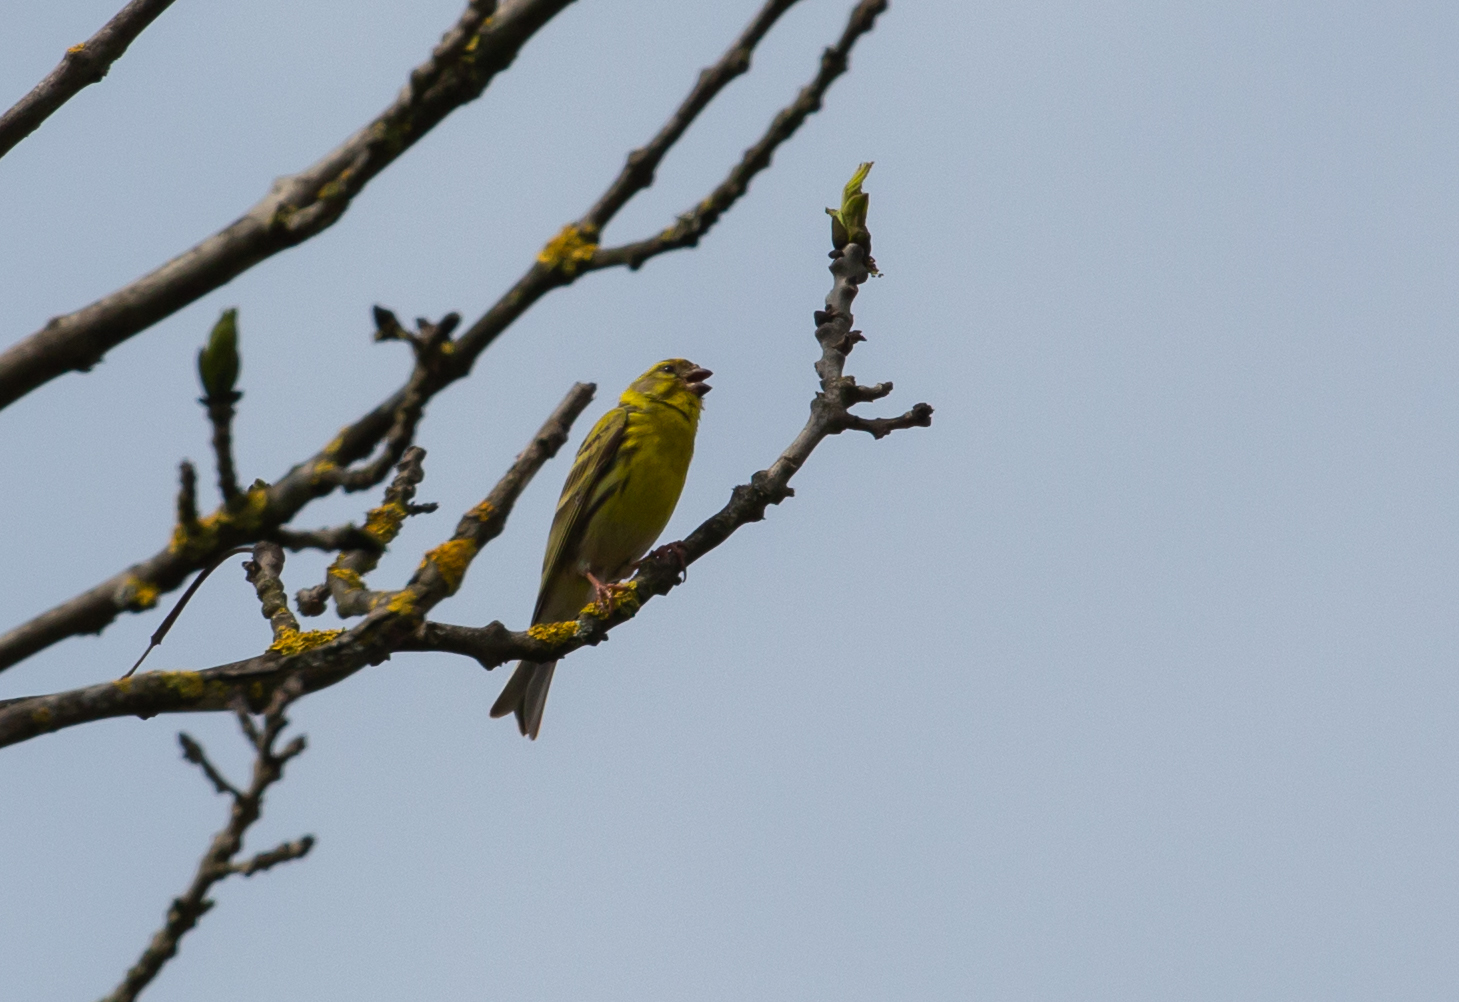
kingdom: Animalia
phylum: Chordata
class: Aves
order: Passeriformes
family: Fringillidae
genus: Serinus
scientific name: Serinus serinus
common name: European serin
